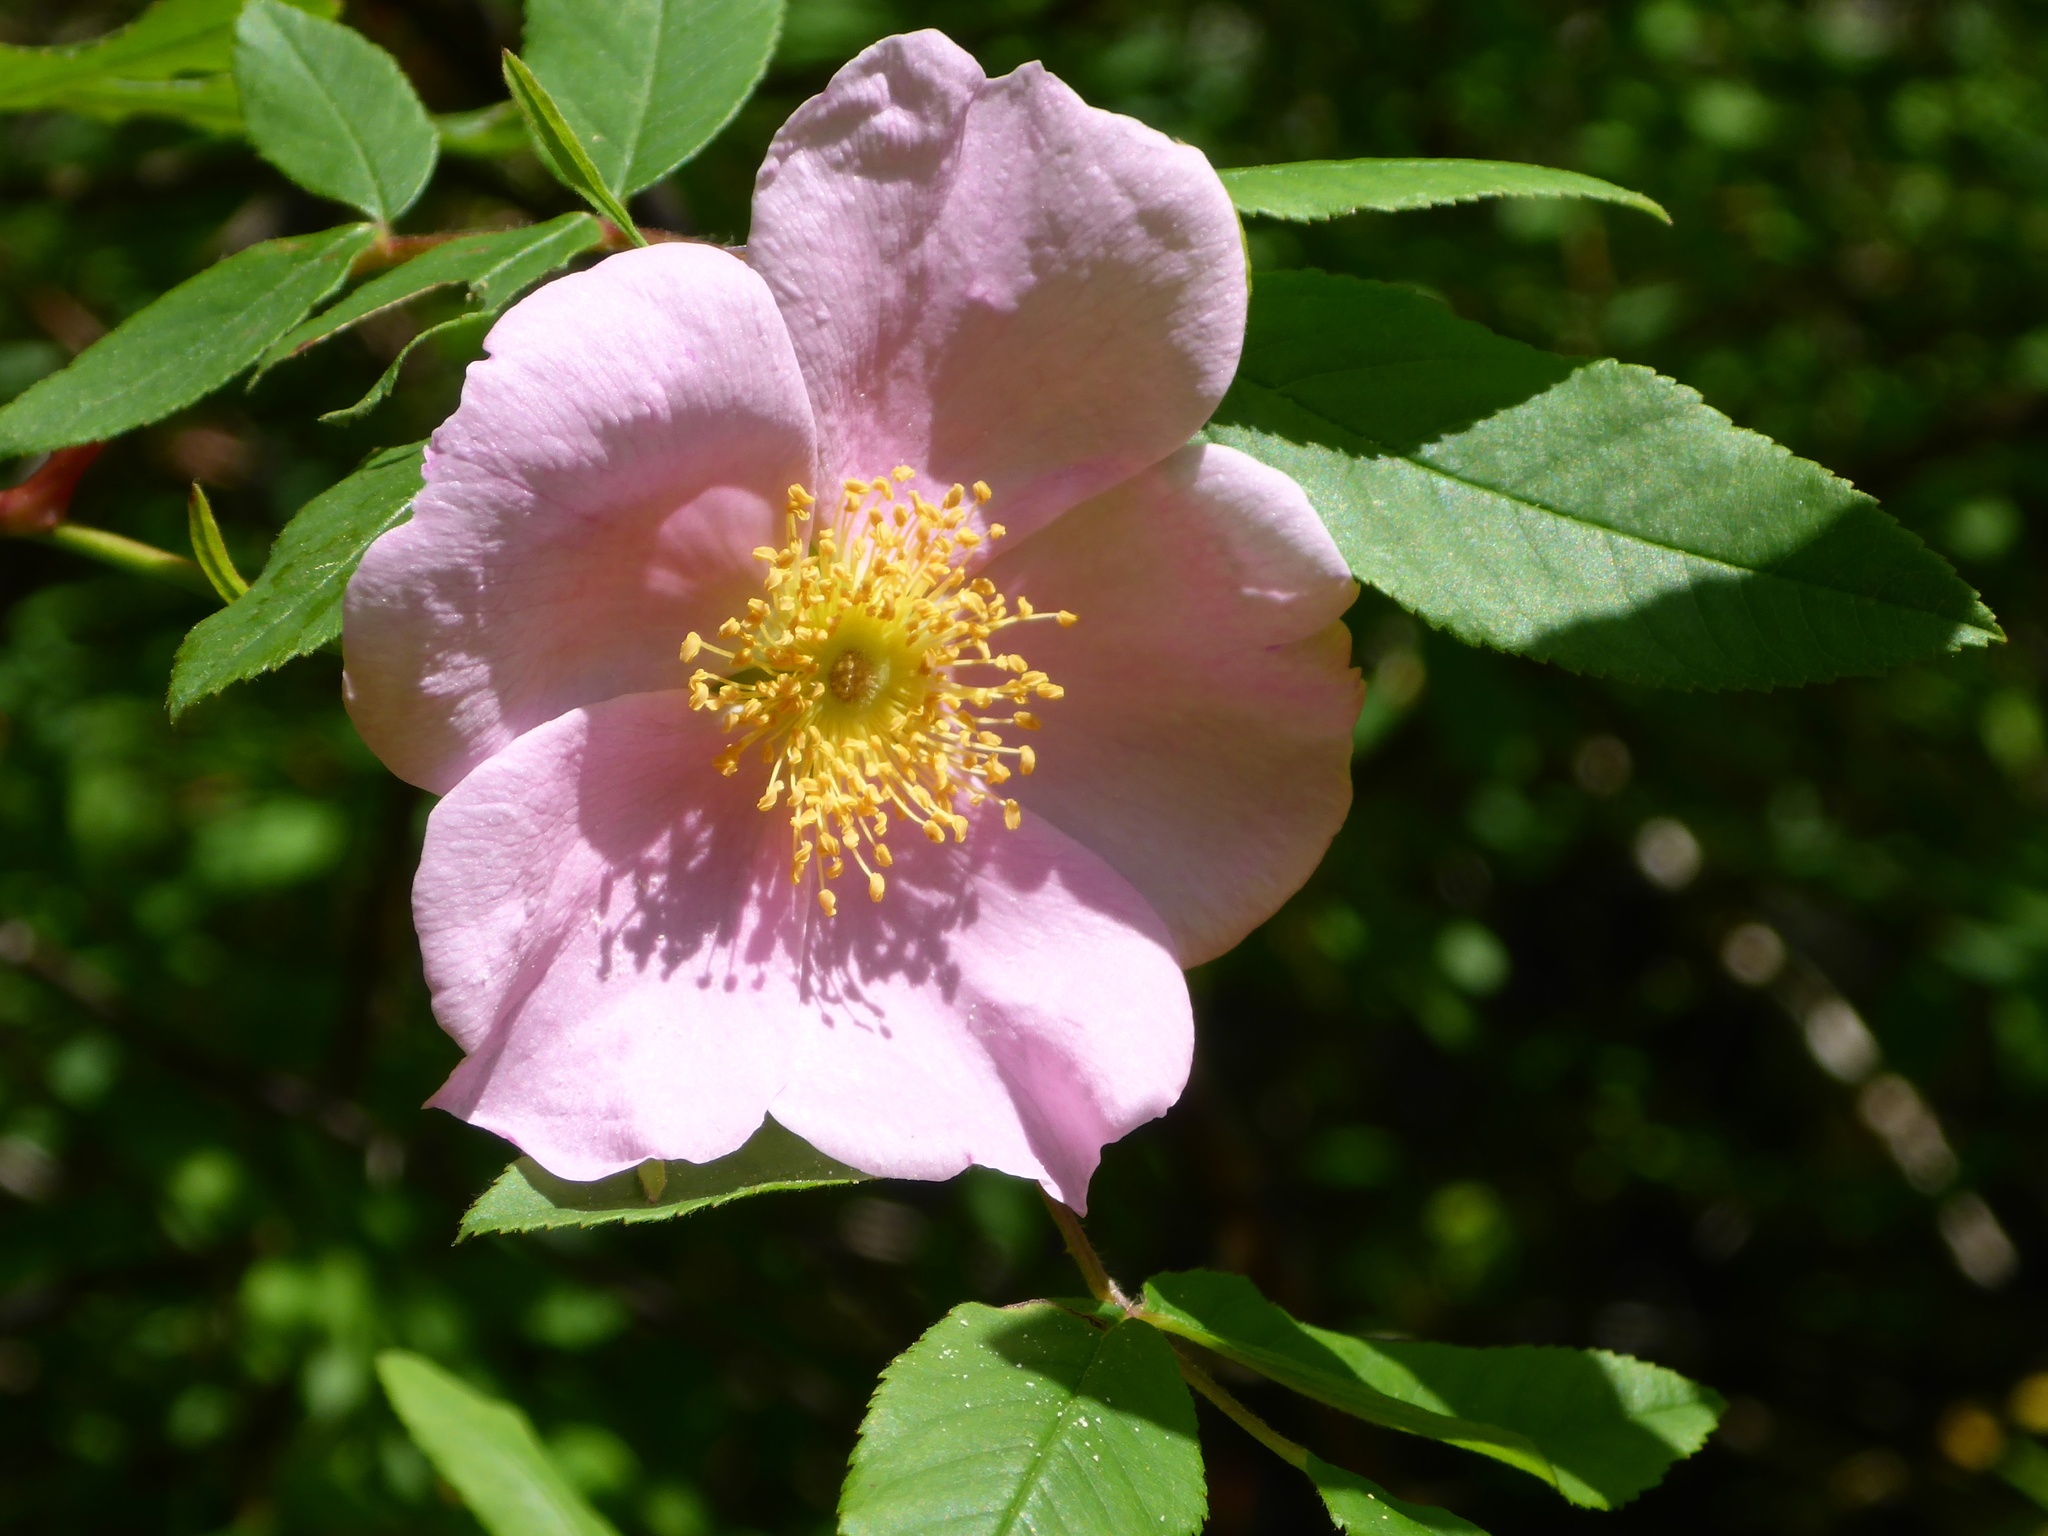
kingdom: Plantae
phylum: Tracheophyta
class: Magnoliopsida
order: Rosales
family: Rosaceae
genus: Rosa
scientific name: Rosa palustris
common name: Swamp rose
